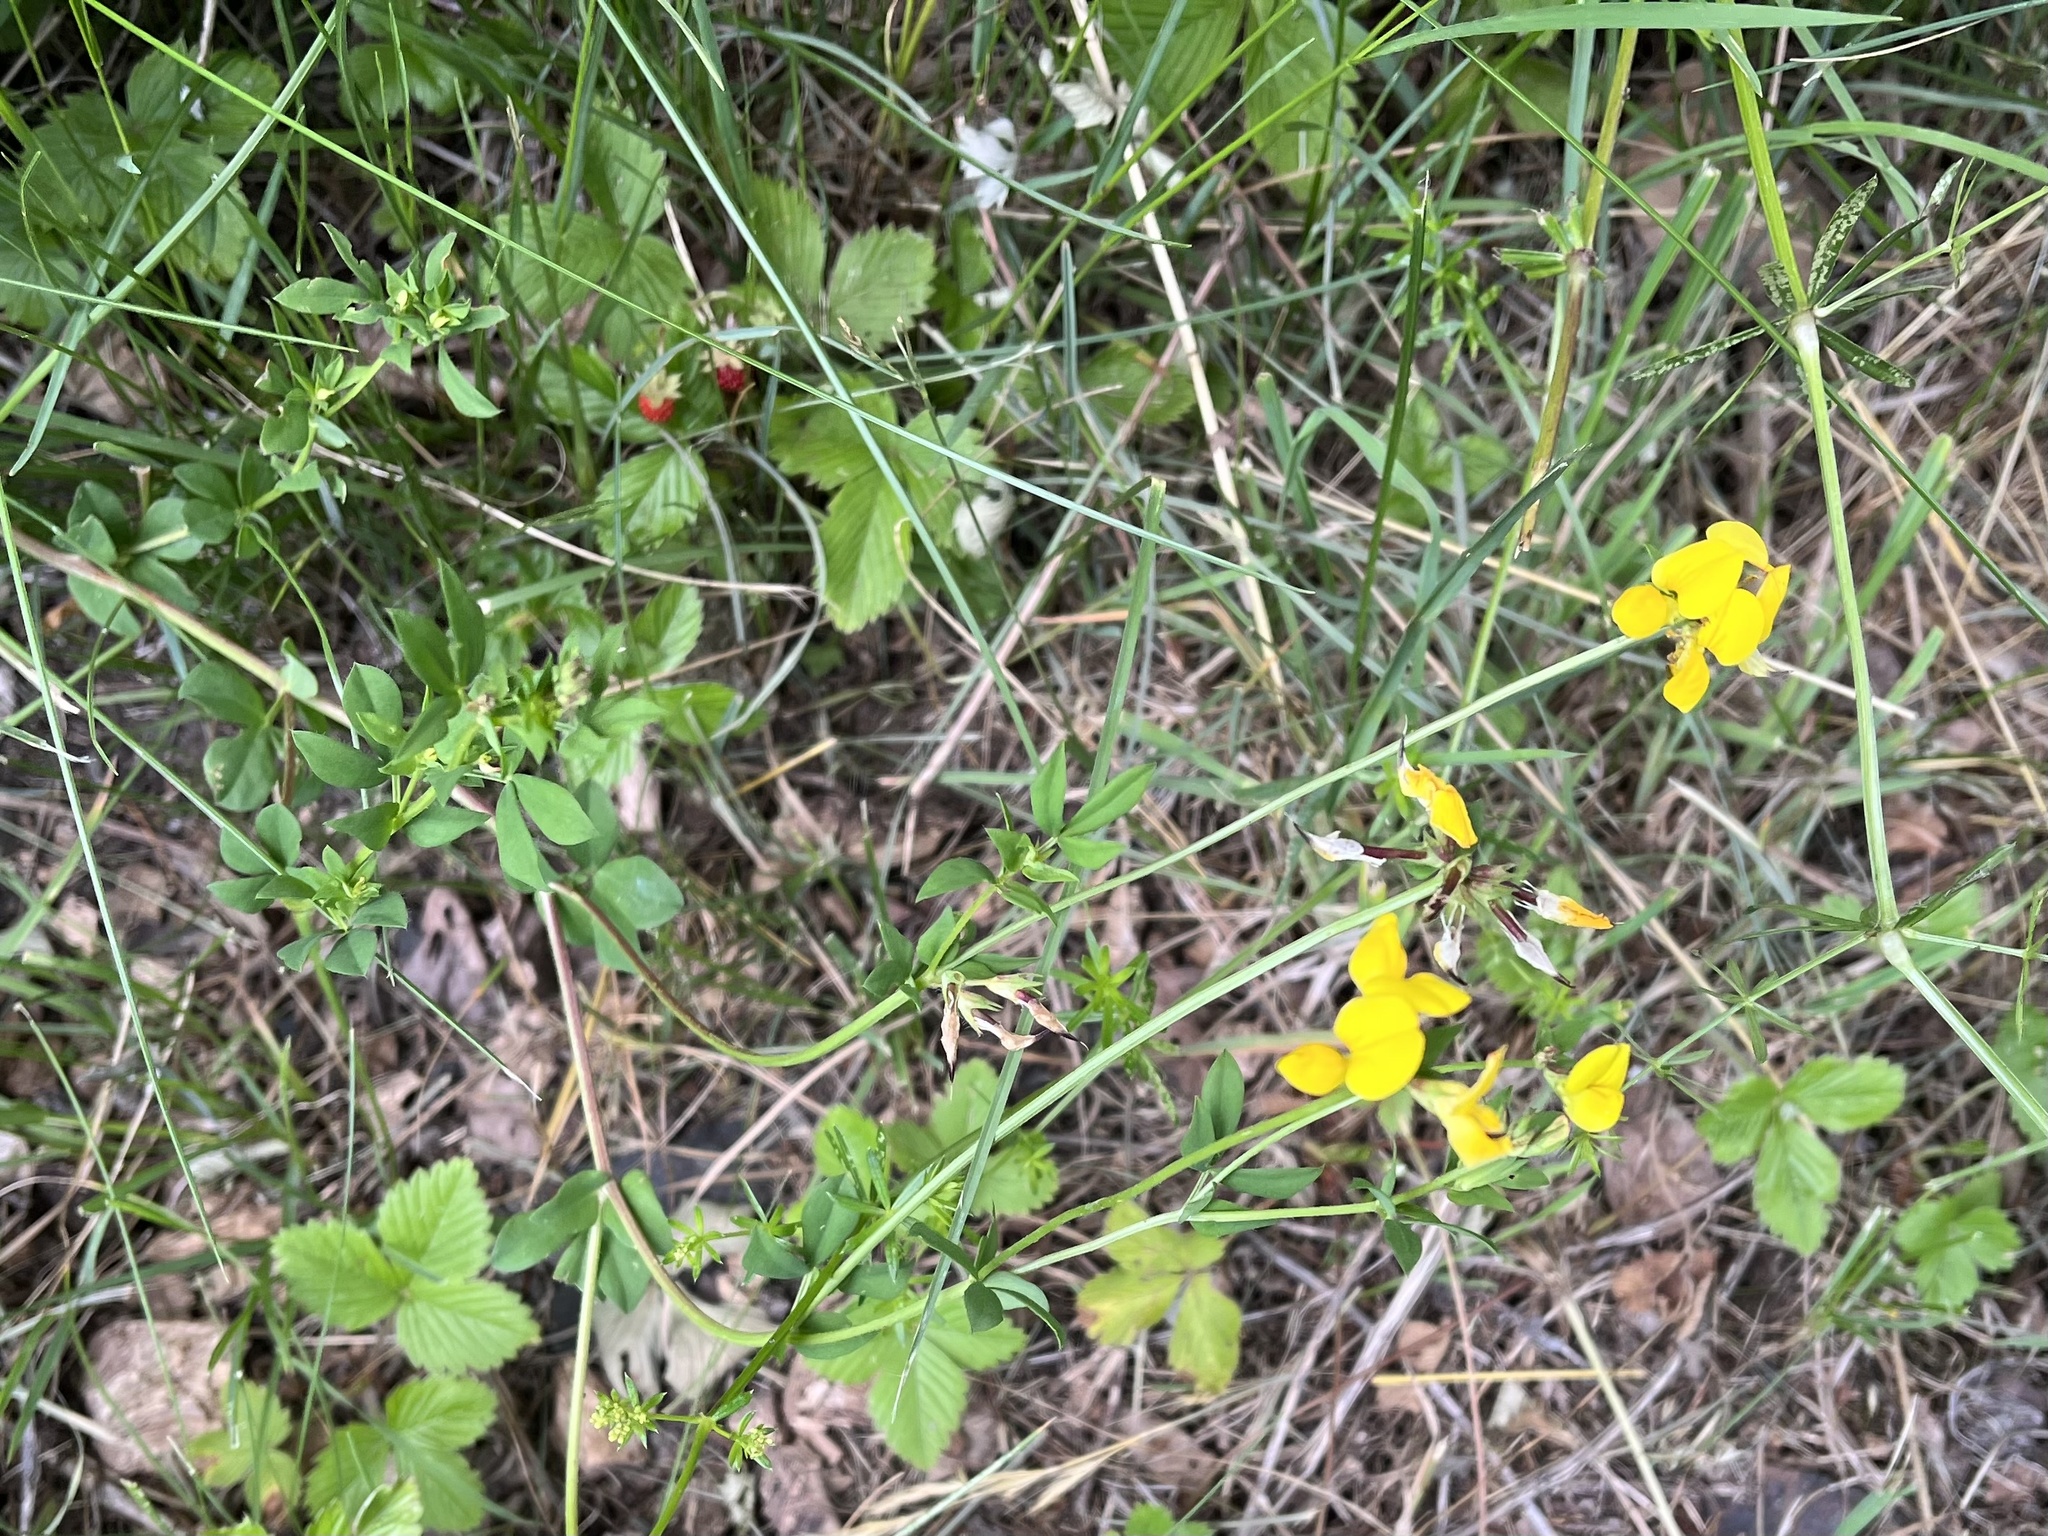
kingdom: Plantae
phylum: Tracheophyta
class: Magnoliopsida
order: Fabales
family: Fabaceae
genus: Lotus
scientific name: Lotus corniculatus
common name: Common bird's-foot-trefoil
